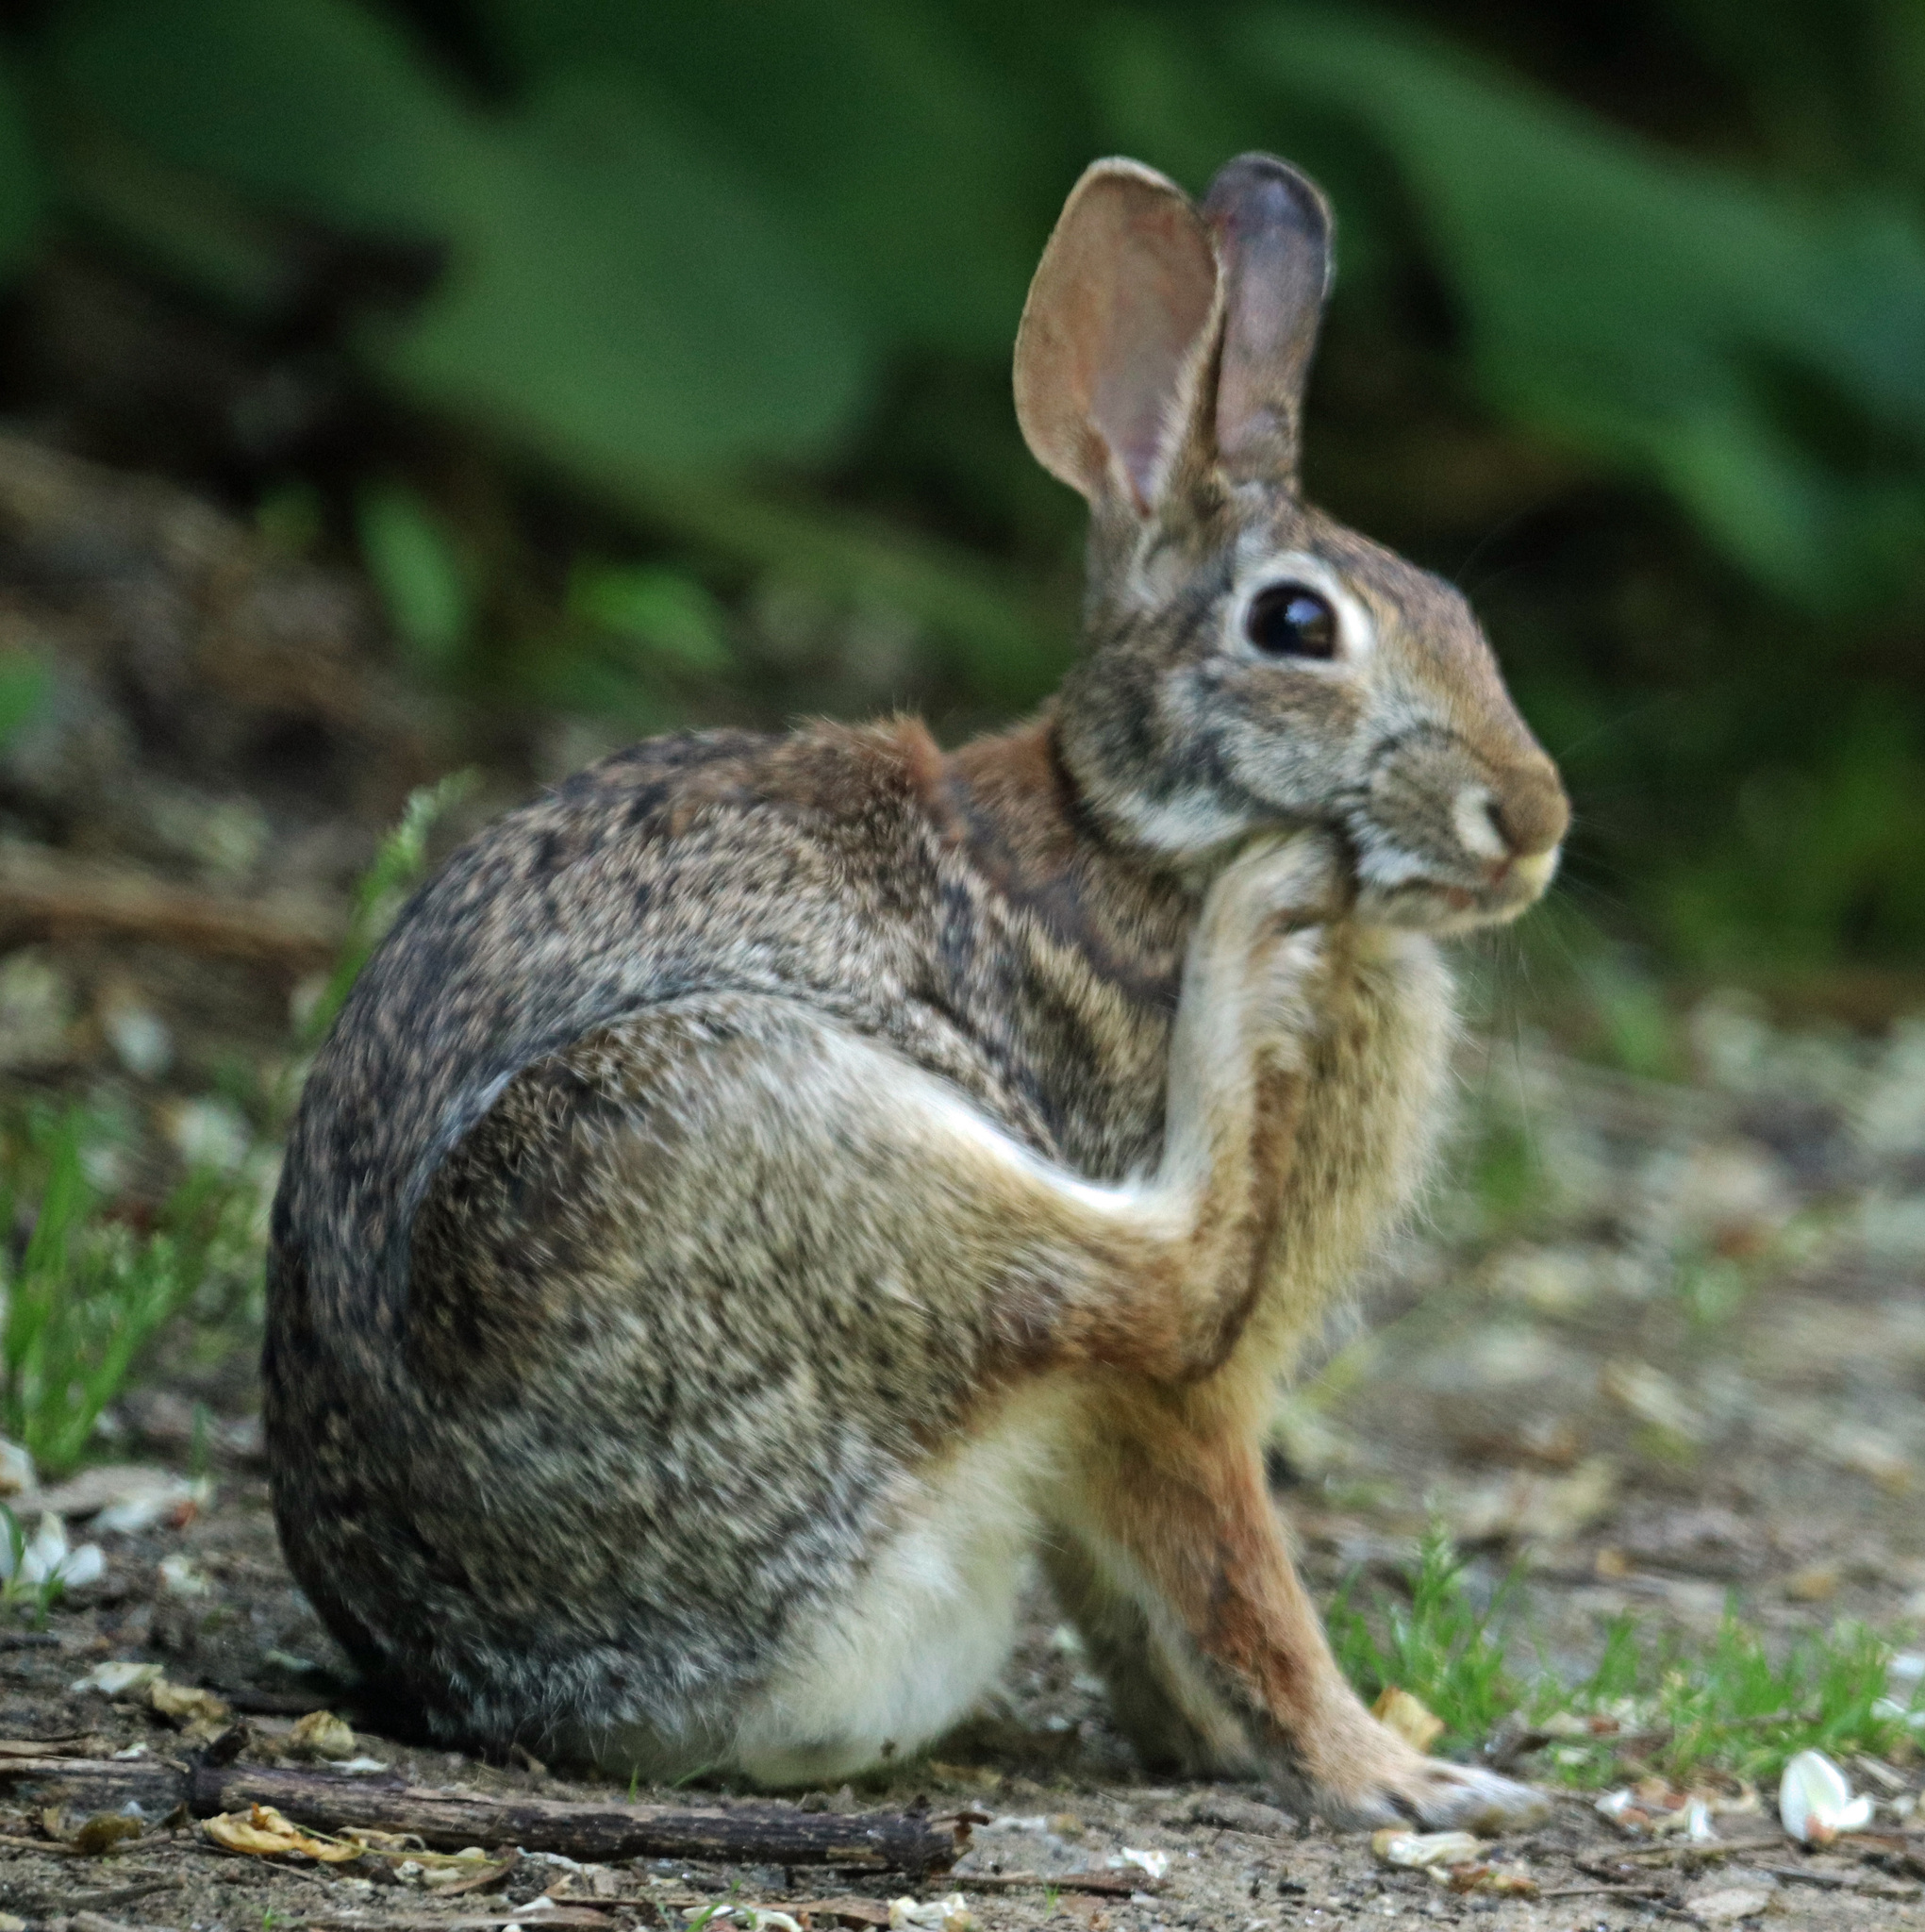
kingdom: Animalia
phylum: Chordata
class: Mammalia
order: Lagomorpha
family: Leporidae
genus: Sylvilagus
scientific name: Sylvilagus floridanus
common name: Eastern cottontail
